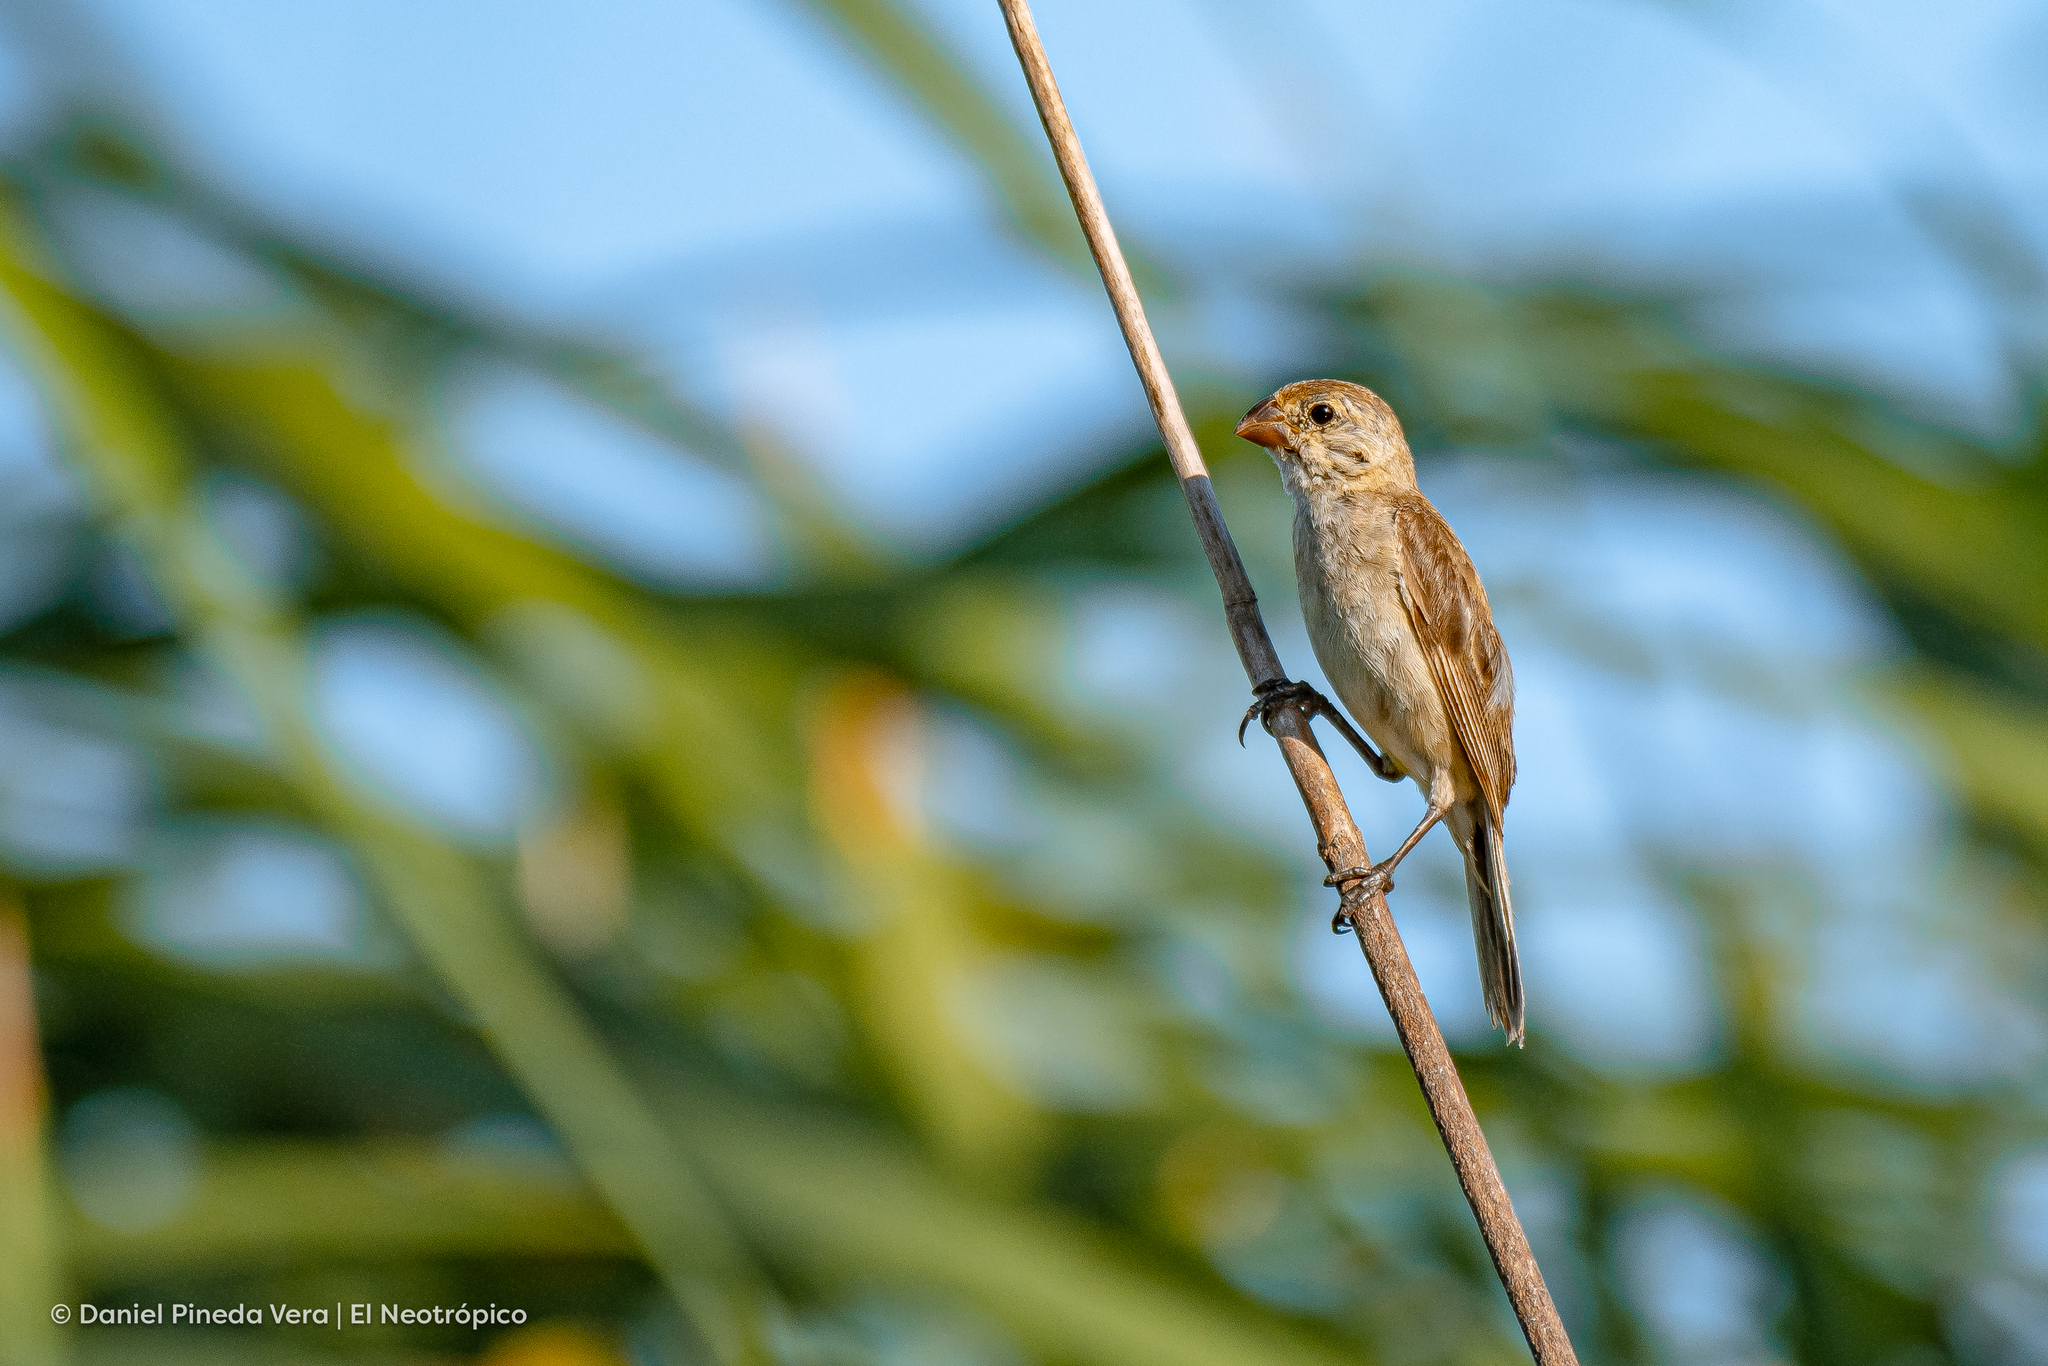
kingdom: Animalia
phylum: Chordata
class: Aves
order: Passeriformes
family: Thraupidae
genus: Sporophila
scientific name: Sporophila minuta
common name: Ruddy-breasted seedeater
